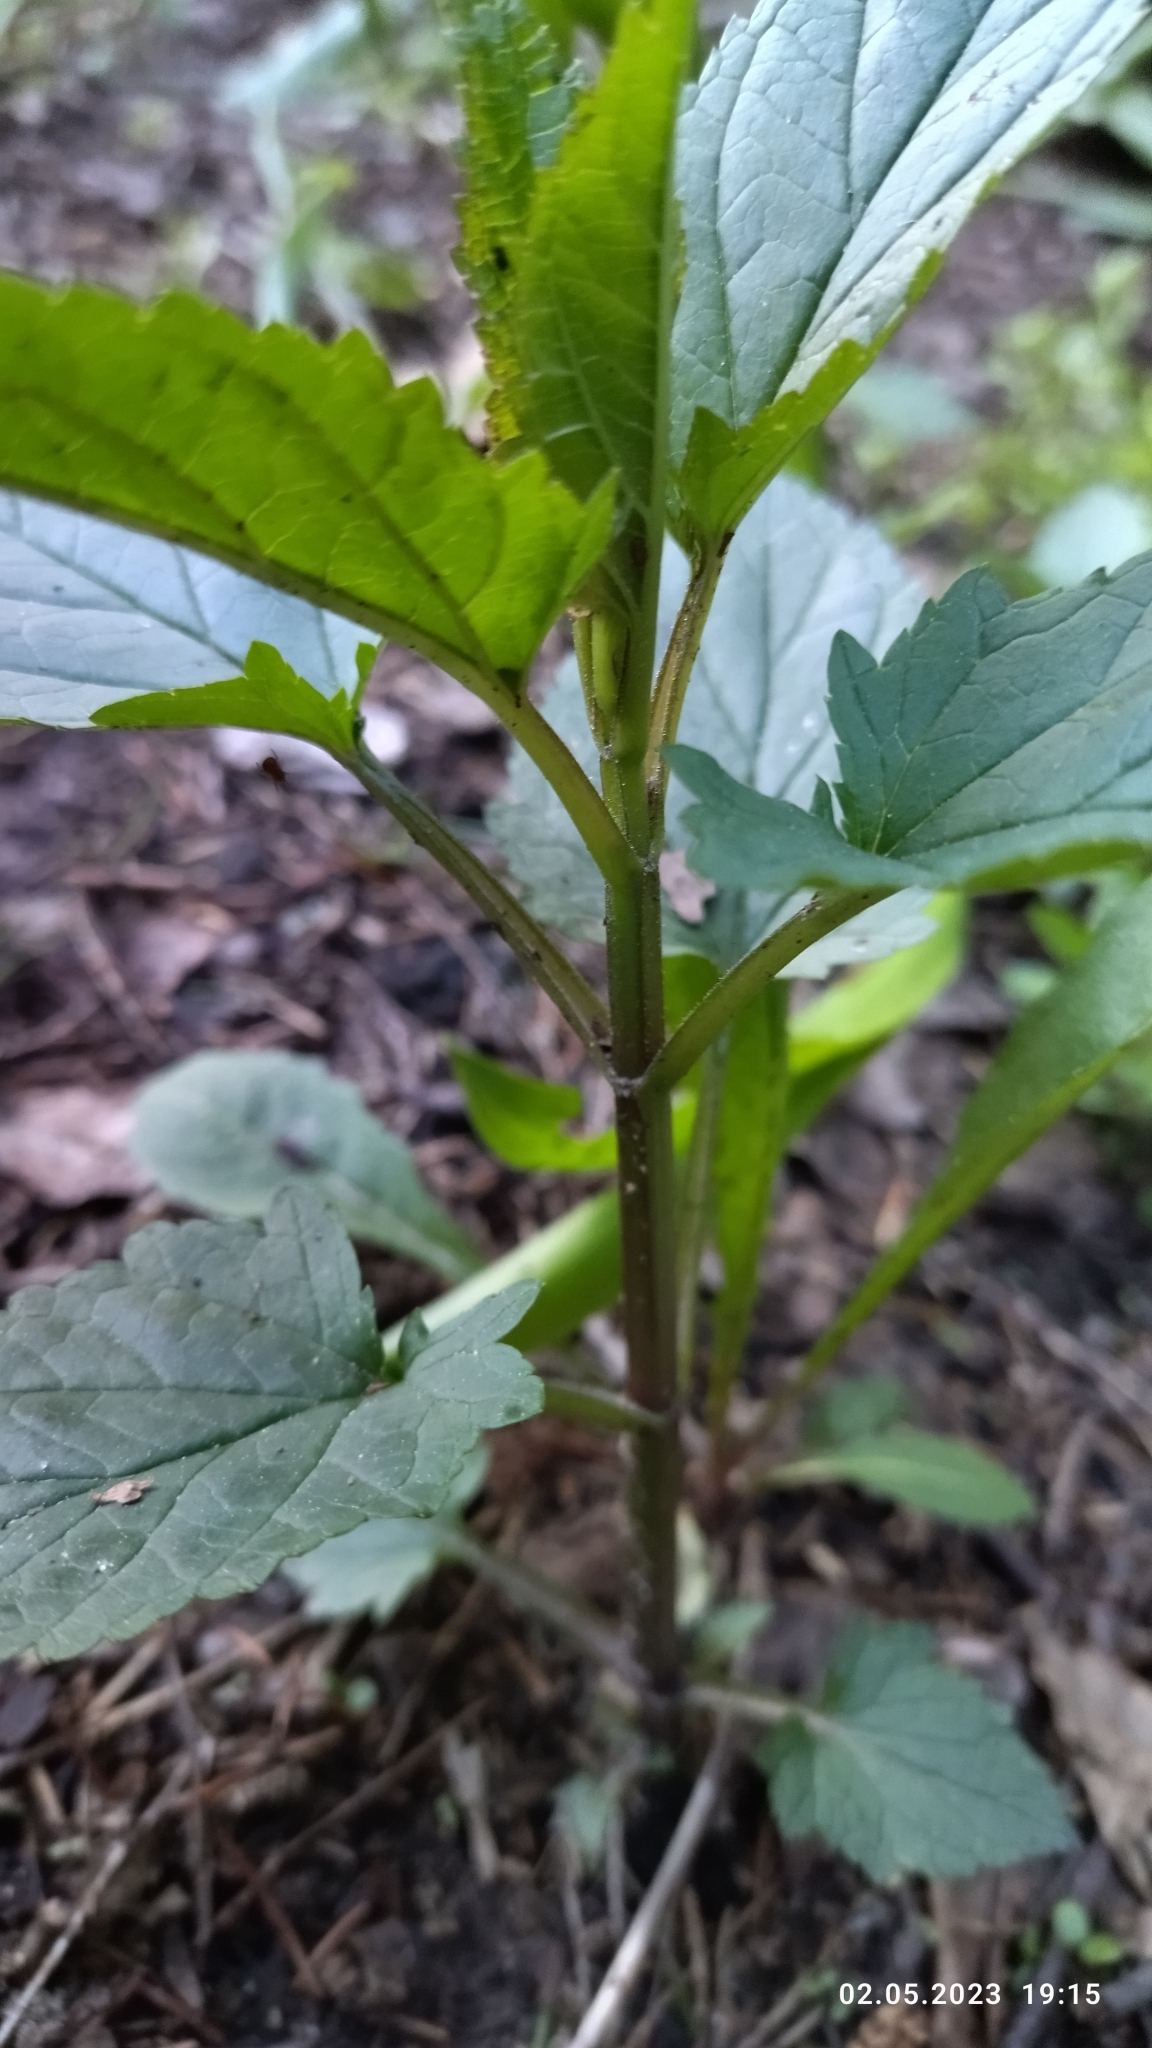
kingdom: Plantae
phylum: Tracheophyta
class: Magnoliopsida
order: Lamiales
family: Scrophulariaceae
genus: Scrophularia
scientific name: Scrophularia nodosa
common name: Common figwort
